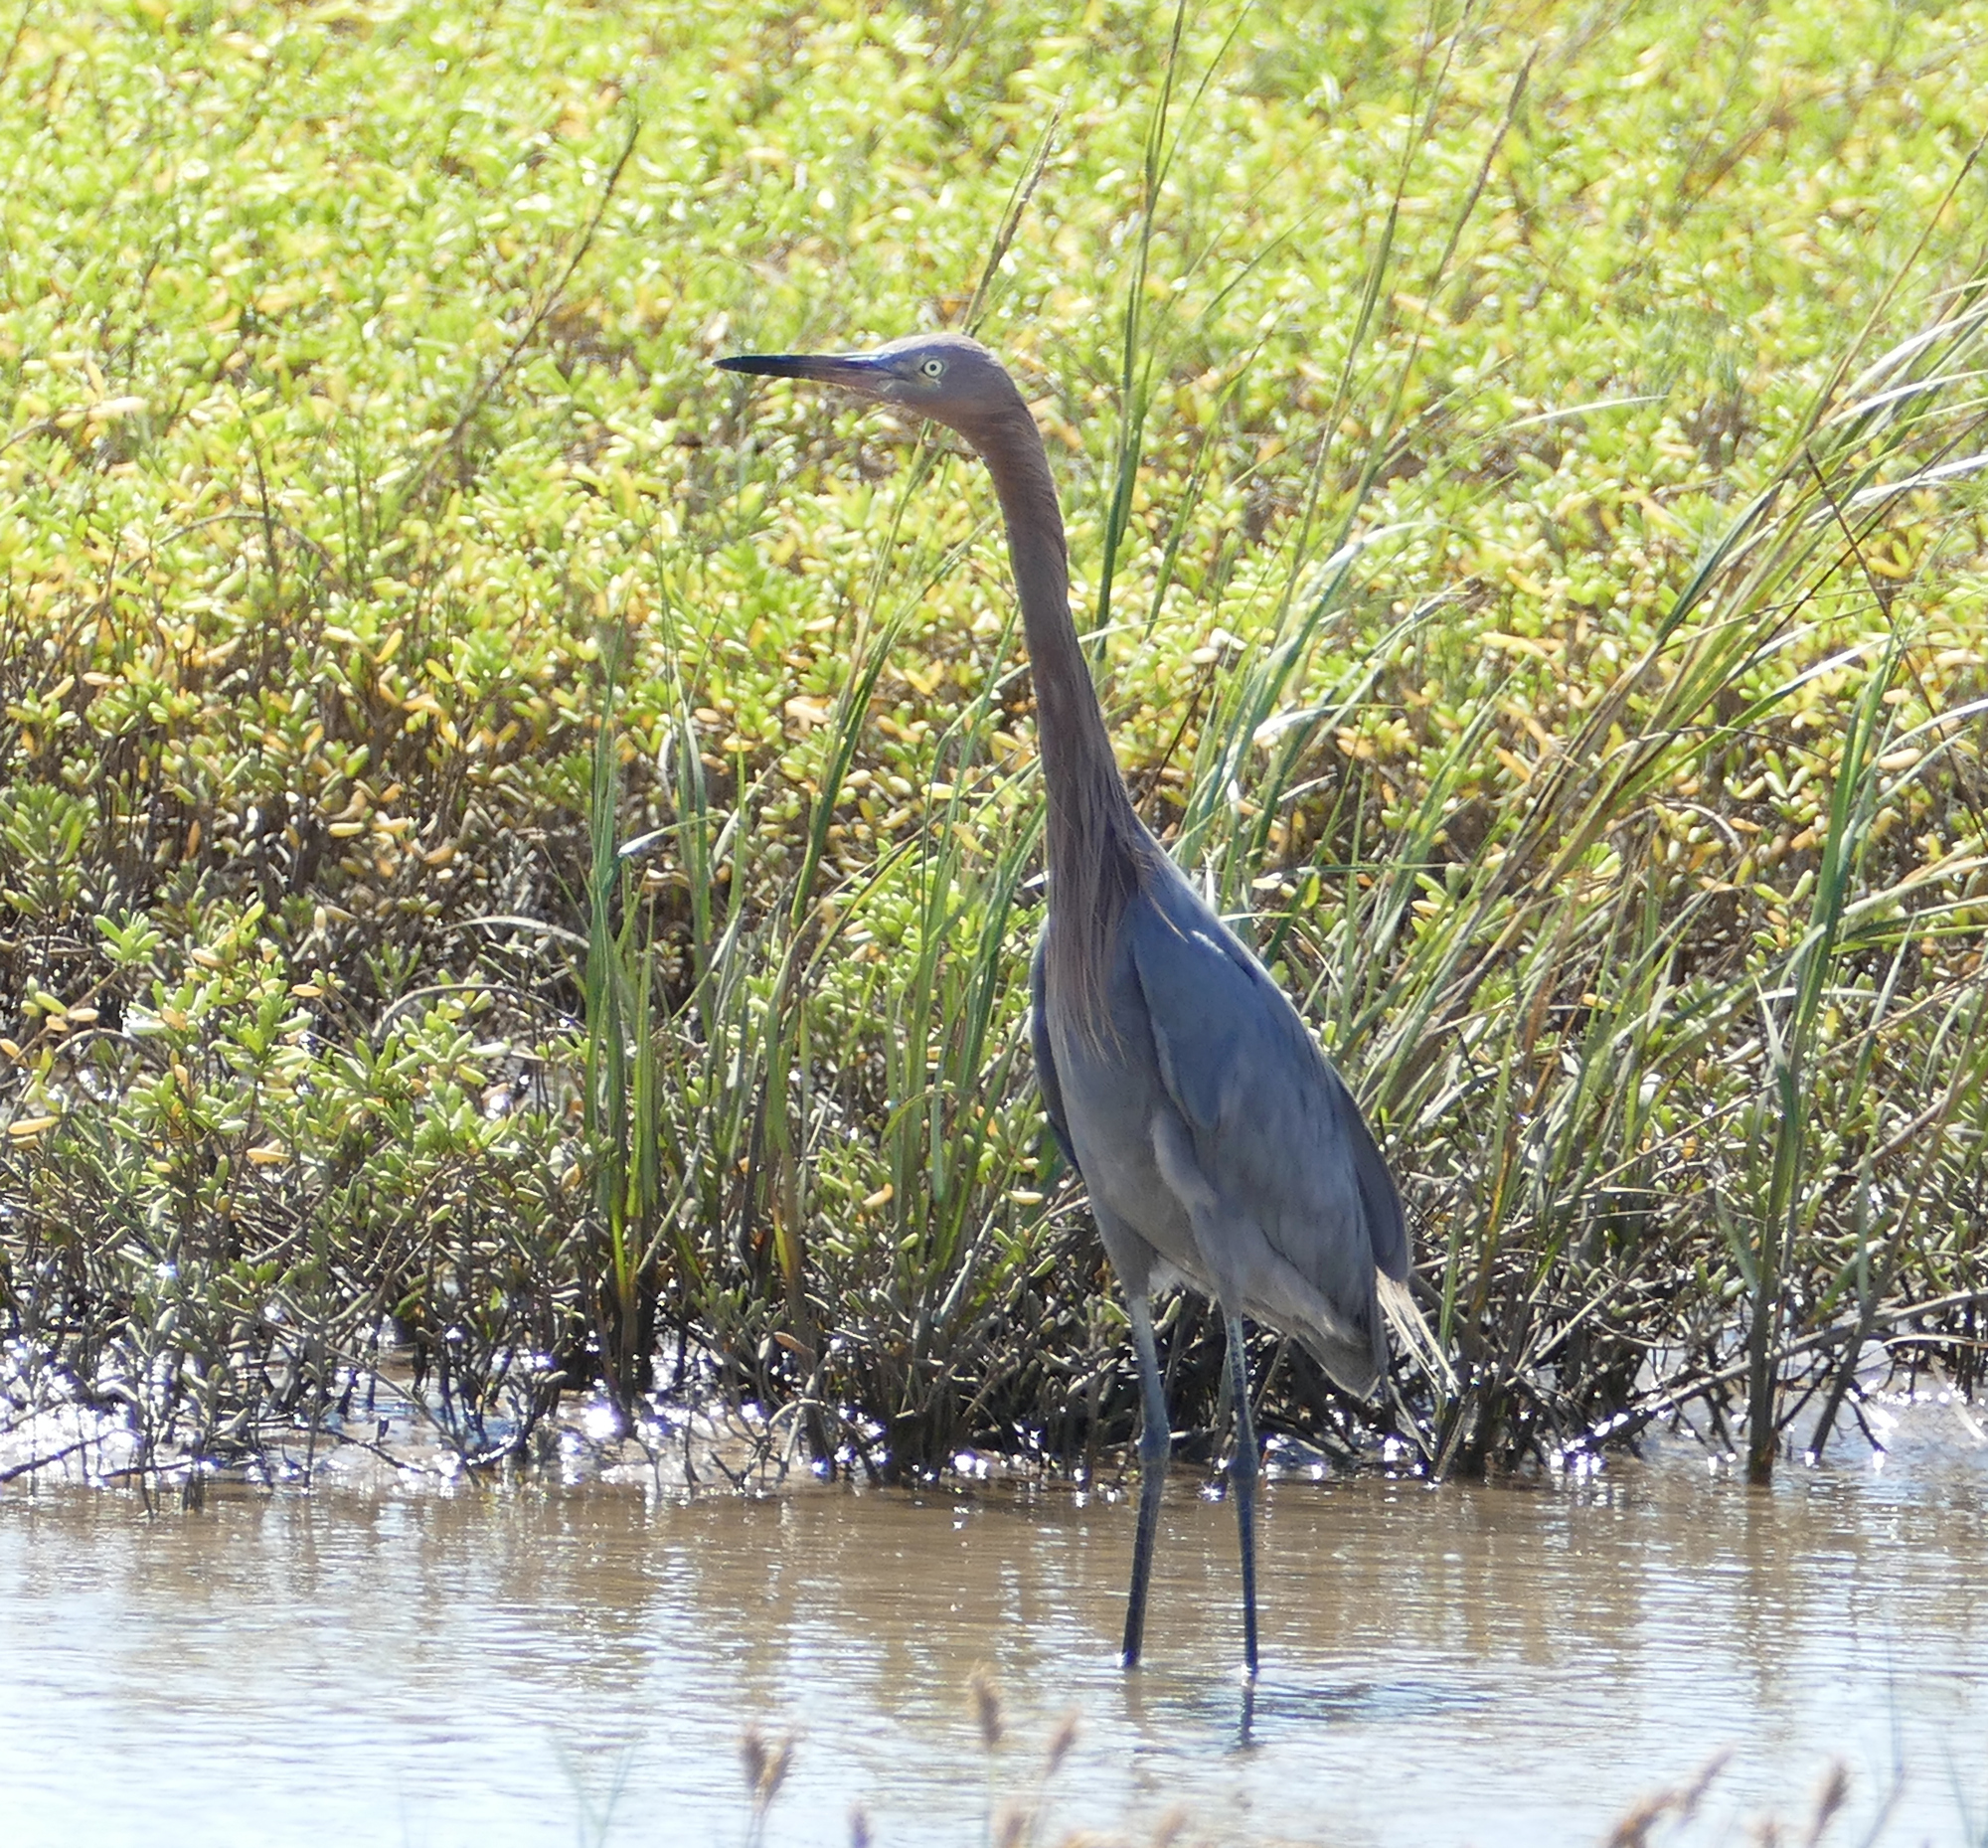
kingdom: Animalia
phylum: Chordata
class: Aves
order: Pelecaniformes
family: Ardeidae
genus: Egretta
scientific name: Egretta rufescens
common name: Reddish egret
